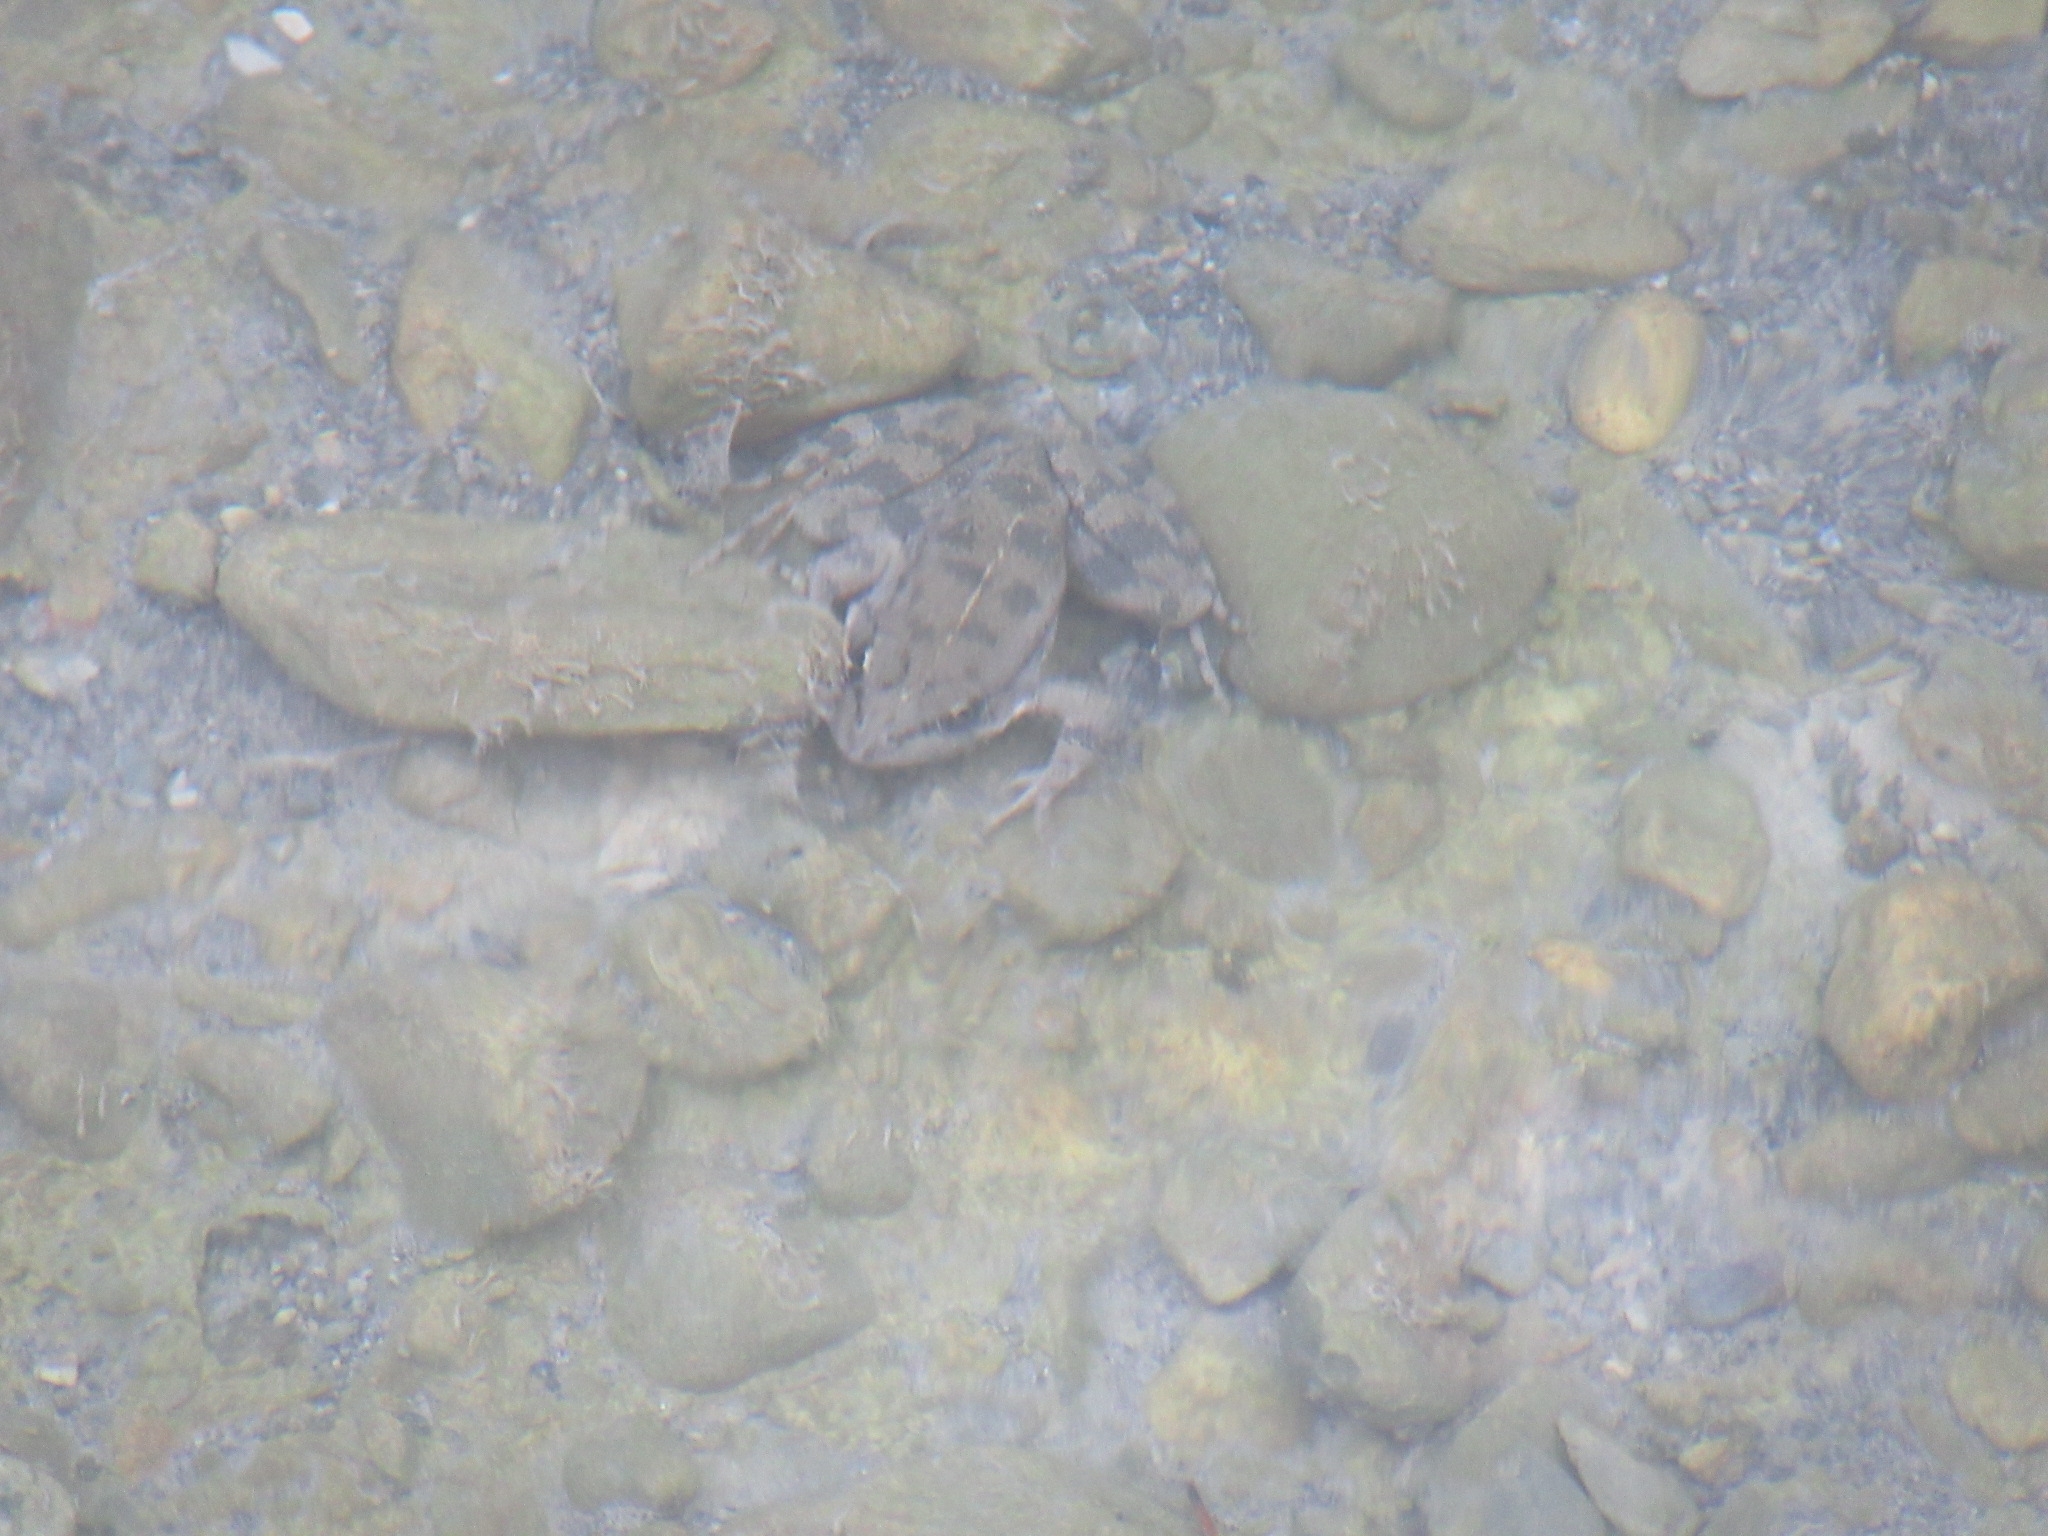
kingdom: Animalia
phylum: Chordata
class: Amphibia
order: Anura
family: Ranidae
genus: Pelophylax
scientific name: Pelophylax cretensis
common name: Cretan frog
